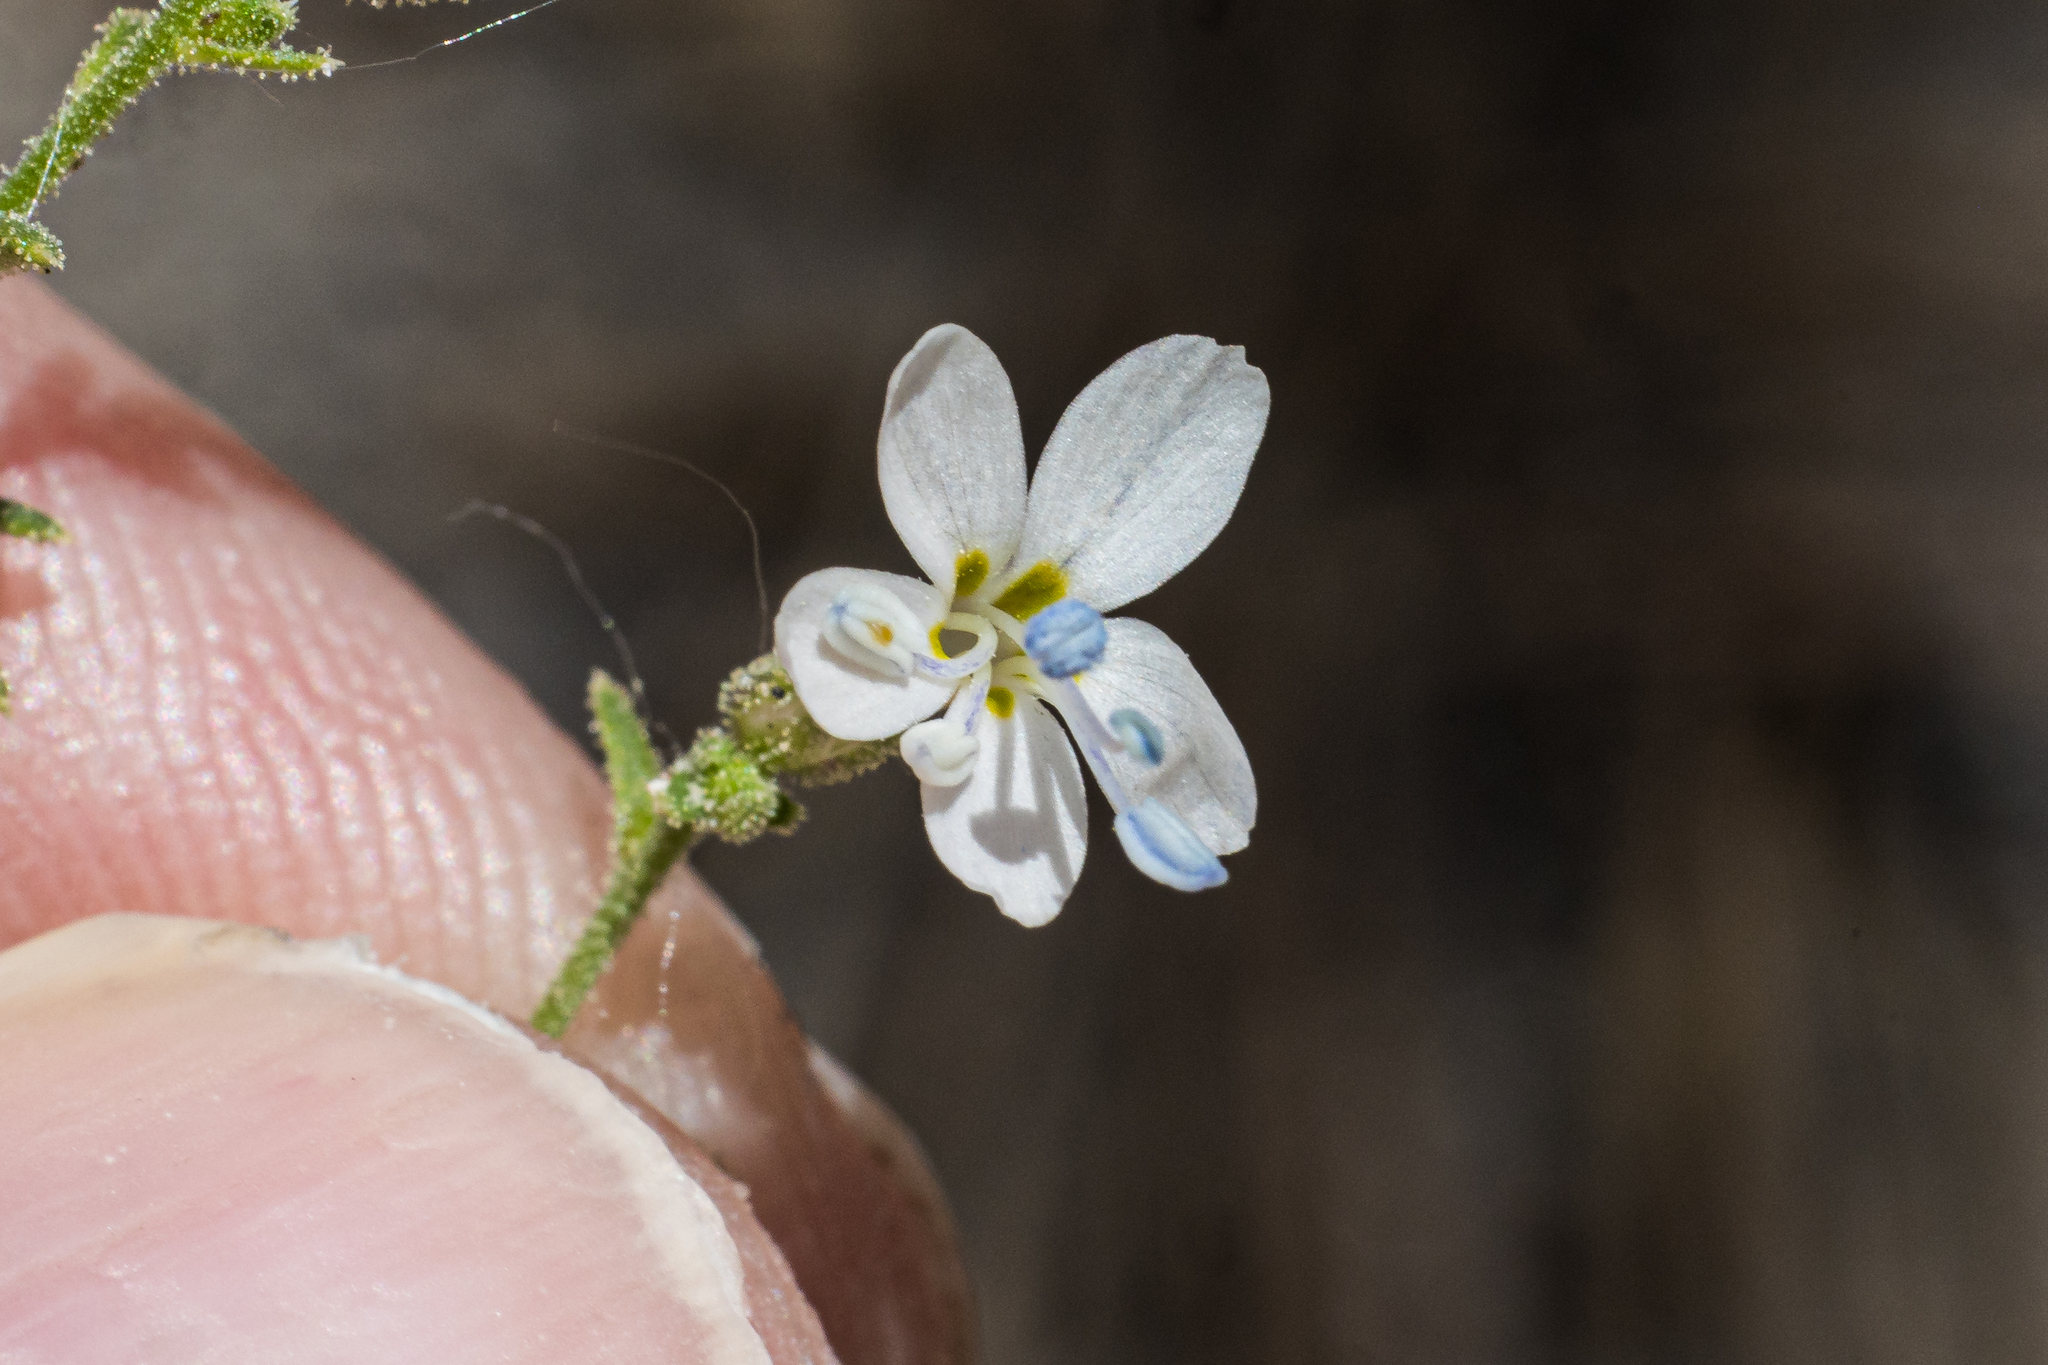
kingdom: Plantae
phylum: Tracheophyta
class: Magnoliopsida
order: Ericales
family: Polemoniaceae
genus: Aliciella
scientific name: Aliciella pinnatifida
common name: Sticky gilia
